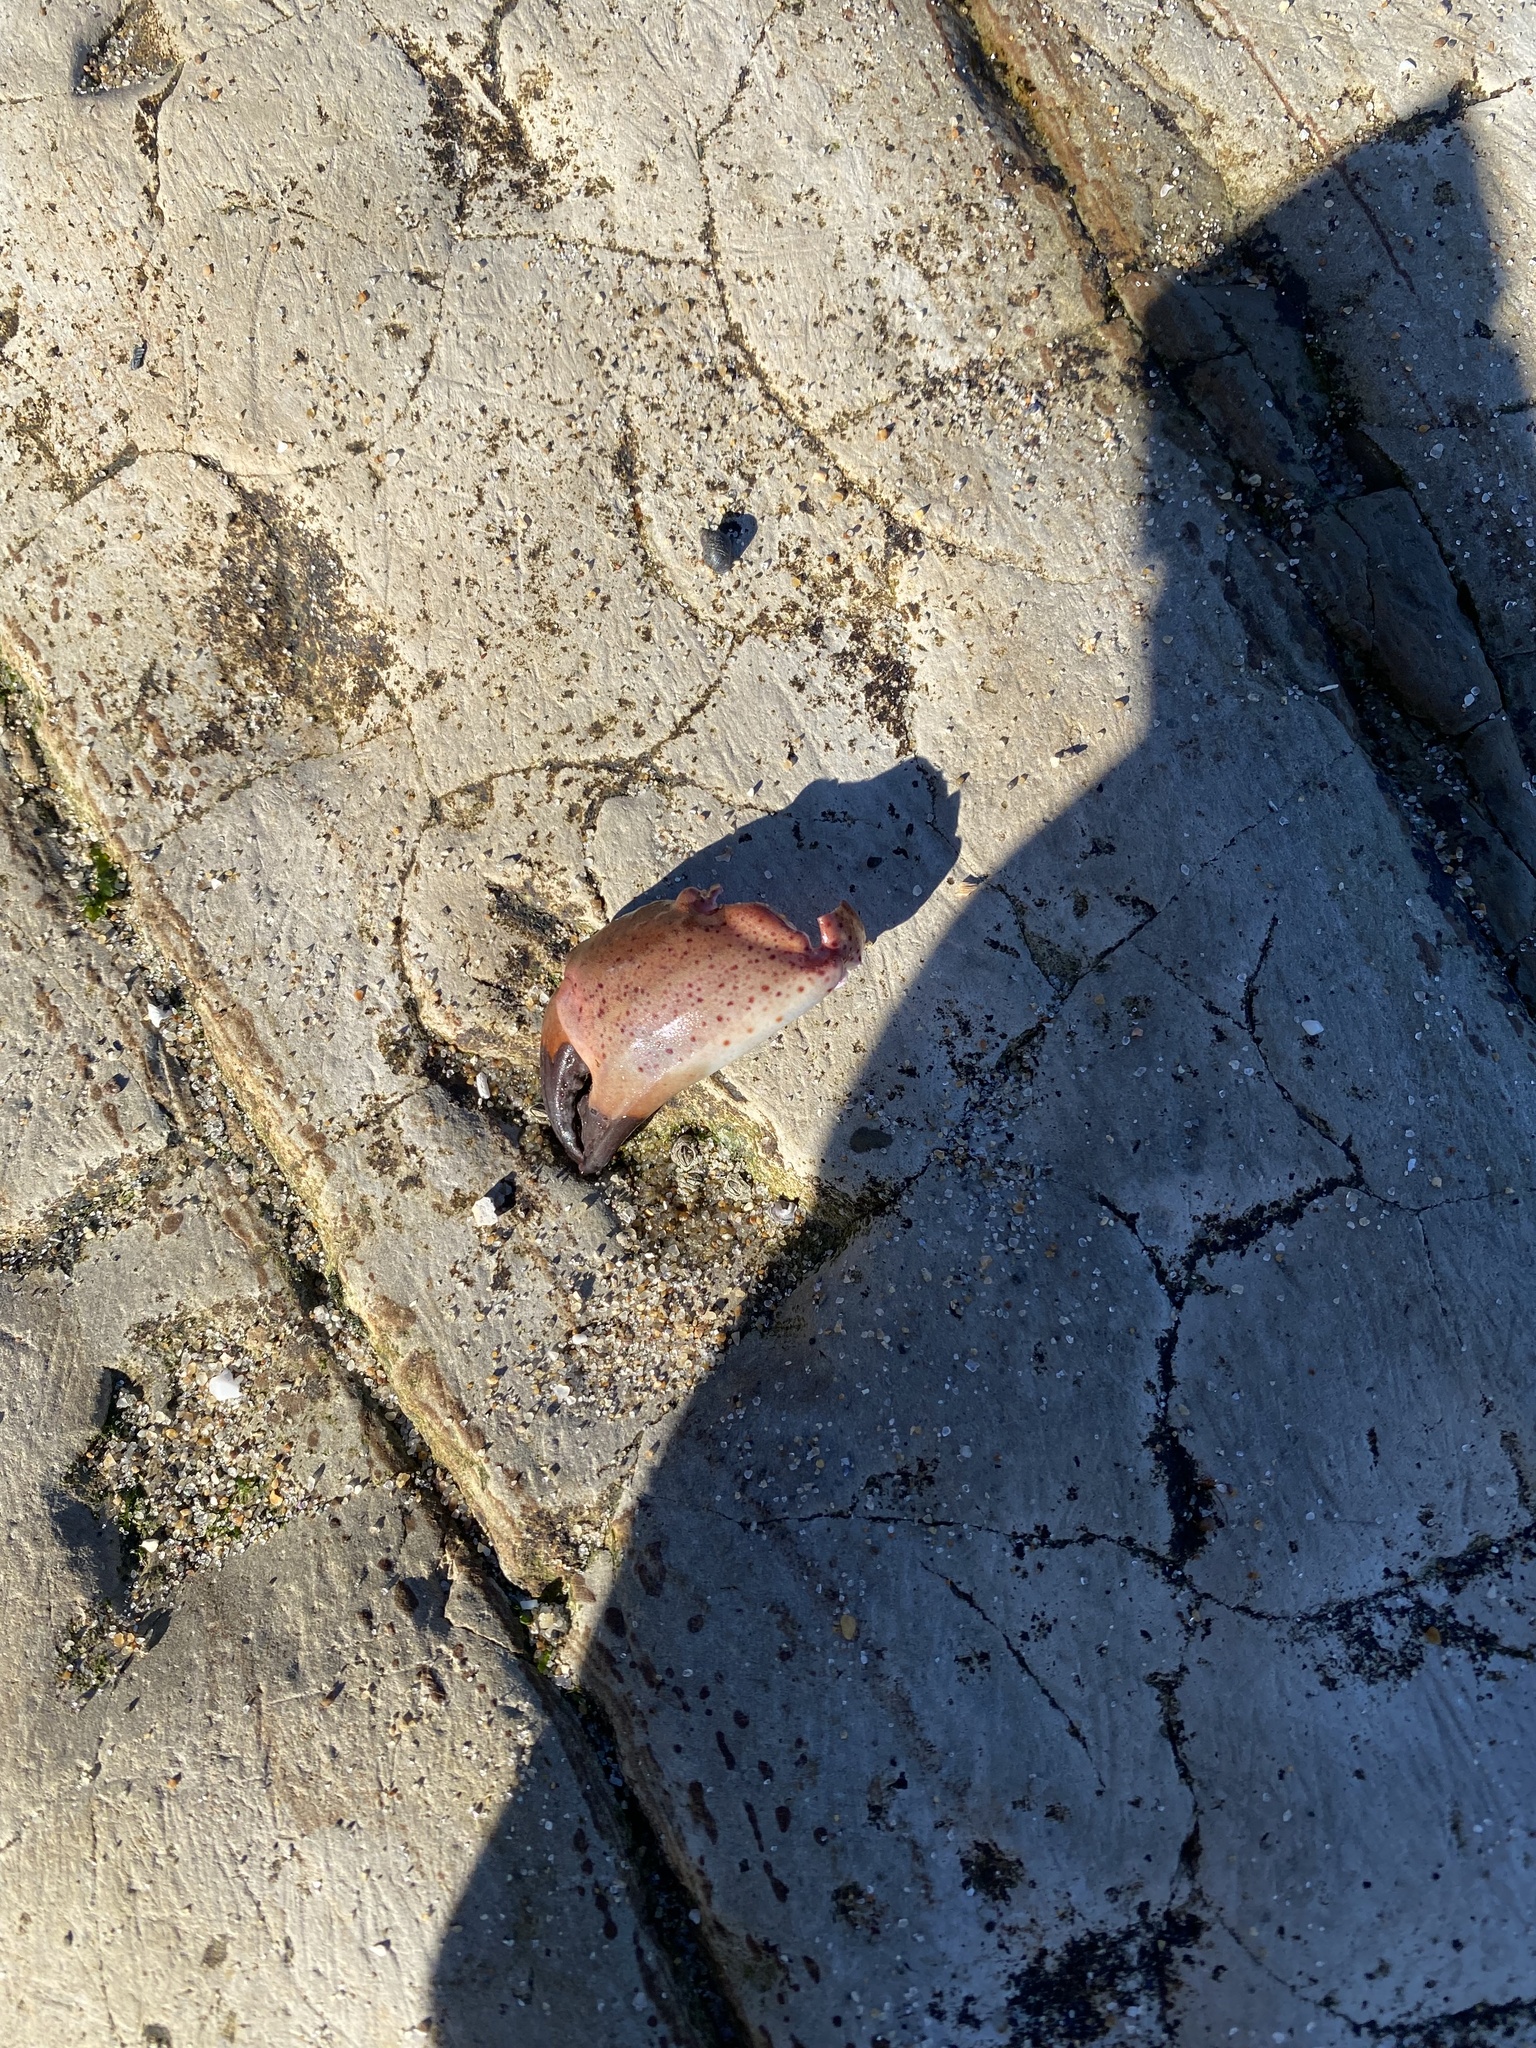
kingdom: Animalia
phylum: Arthropoda
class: Malacostraca
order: Decapoda
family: Cancridae
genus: Romaleon
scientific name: Romaleon antennarium
